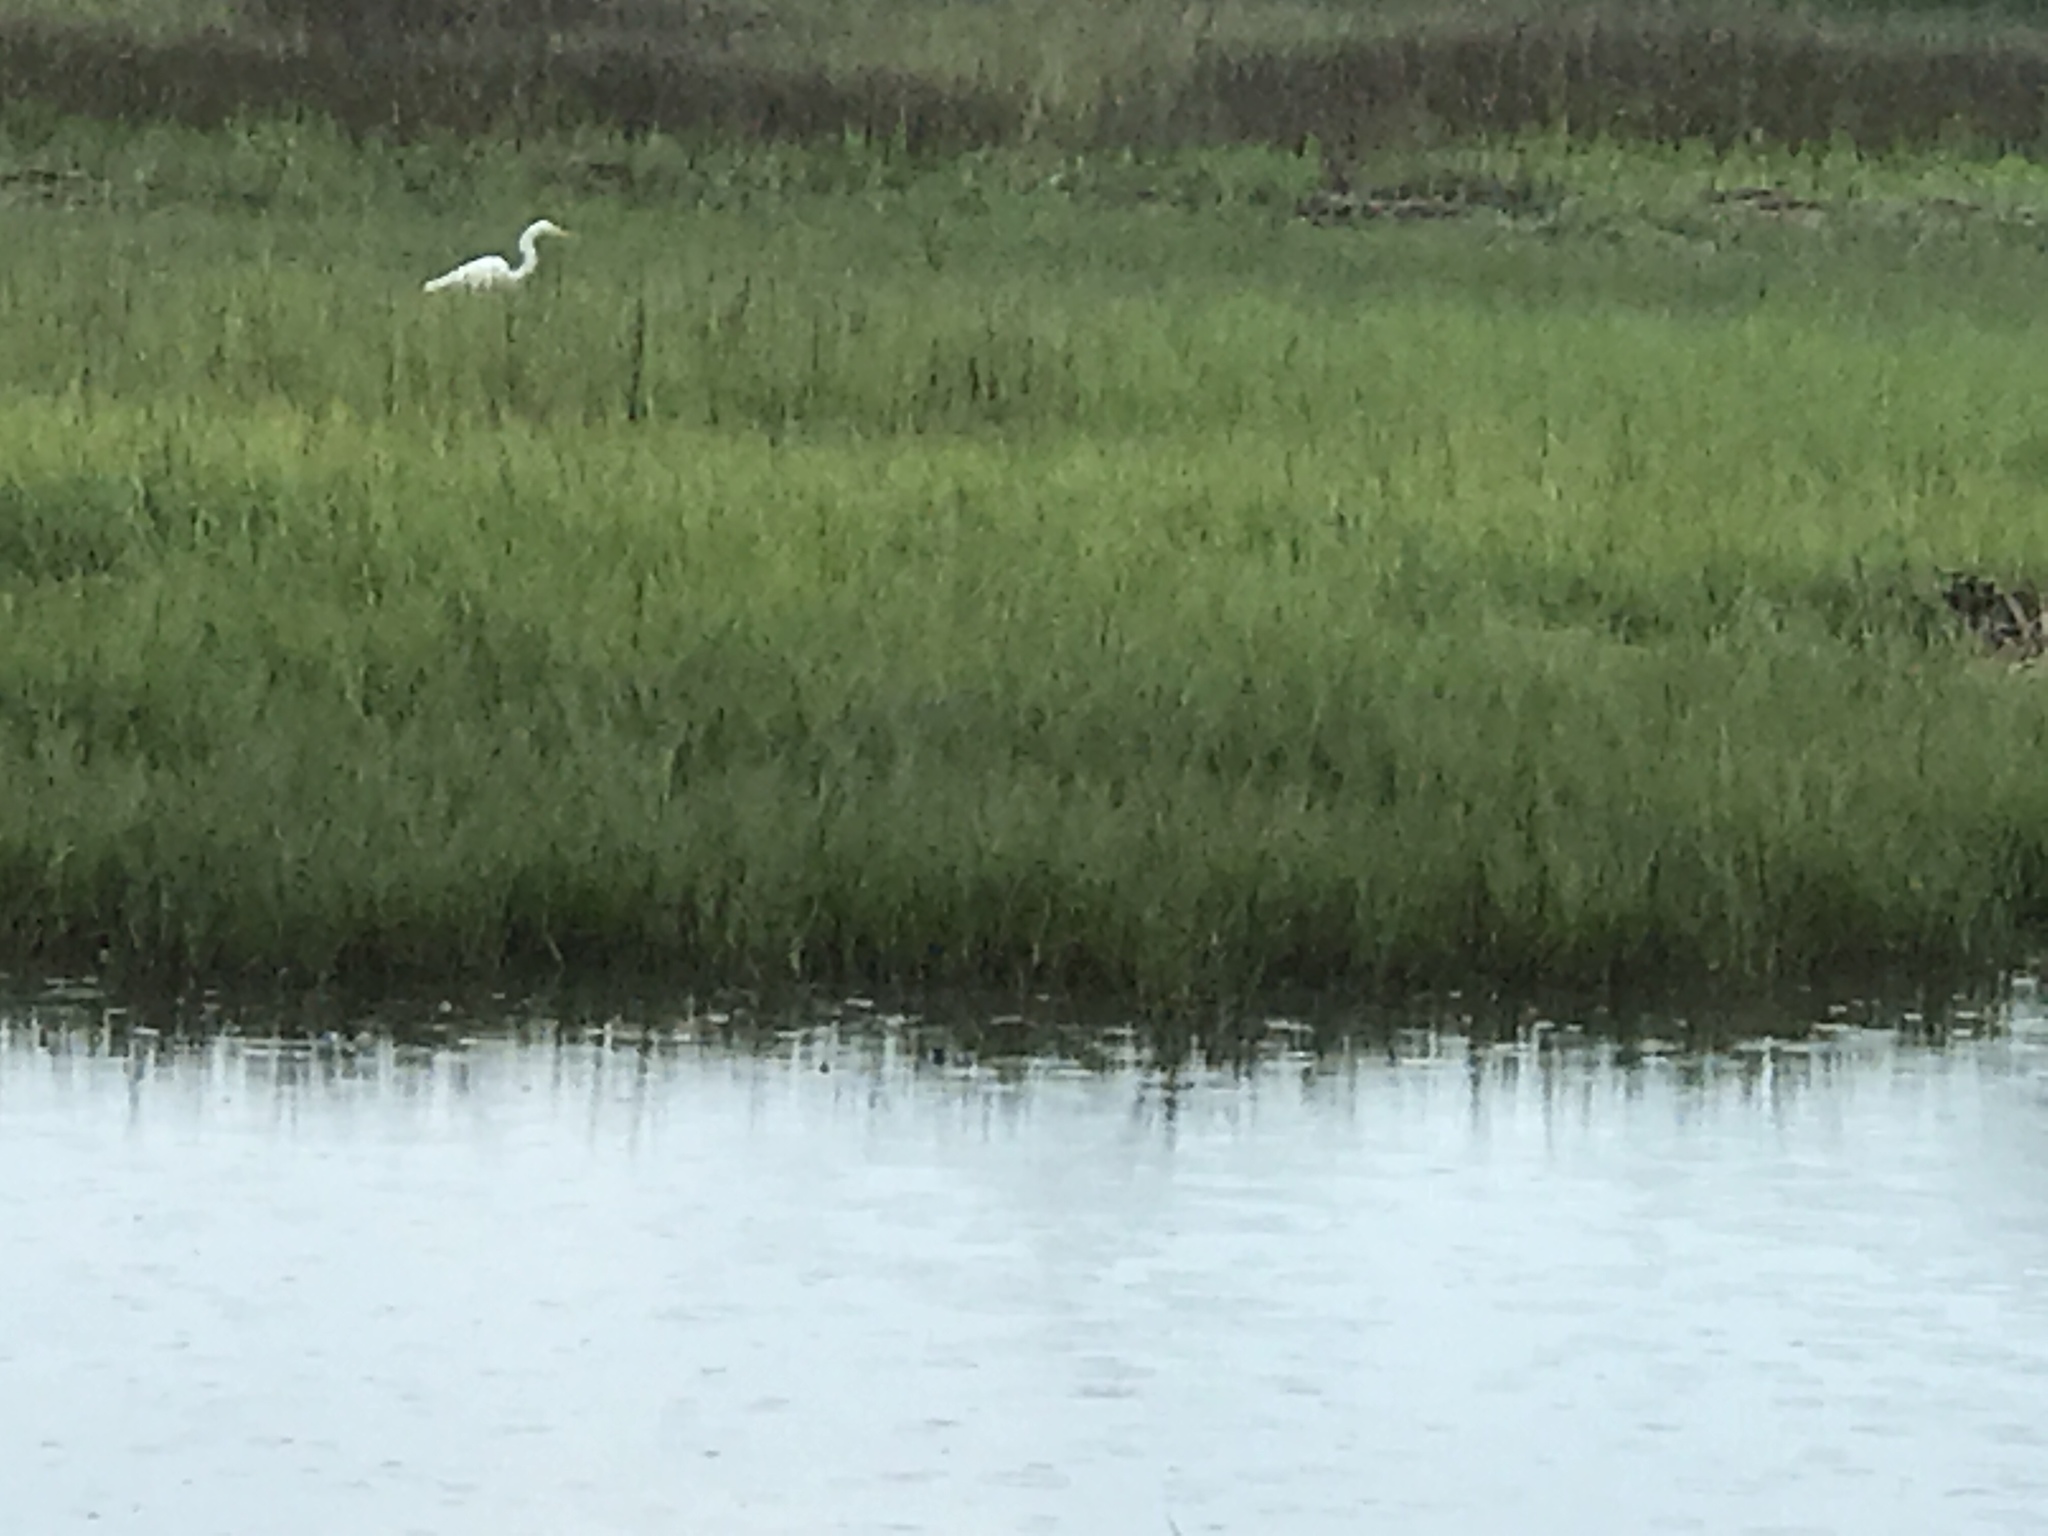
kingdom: Animalia
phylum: Chordata
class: Aves
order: Pelecaniformes
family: Ardeidae
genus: Ardea
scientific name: Ardea alba
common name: Great egret
